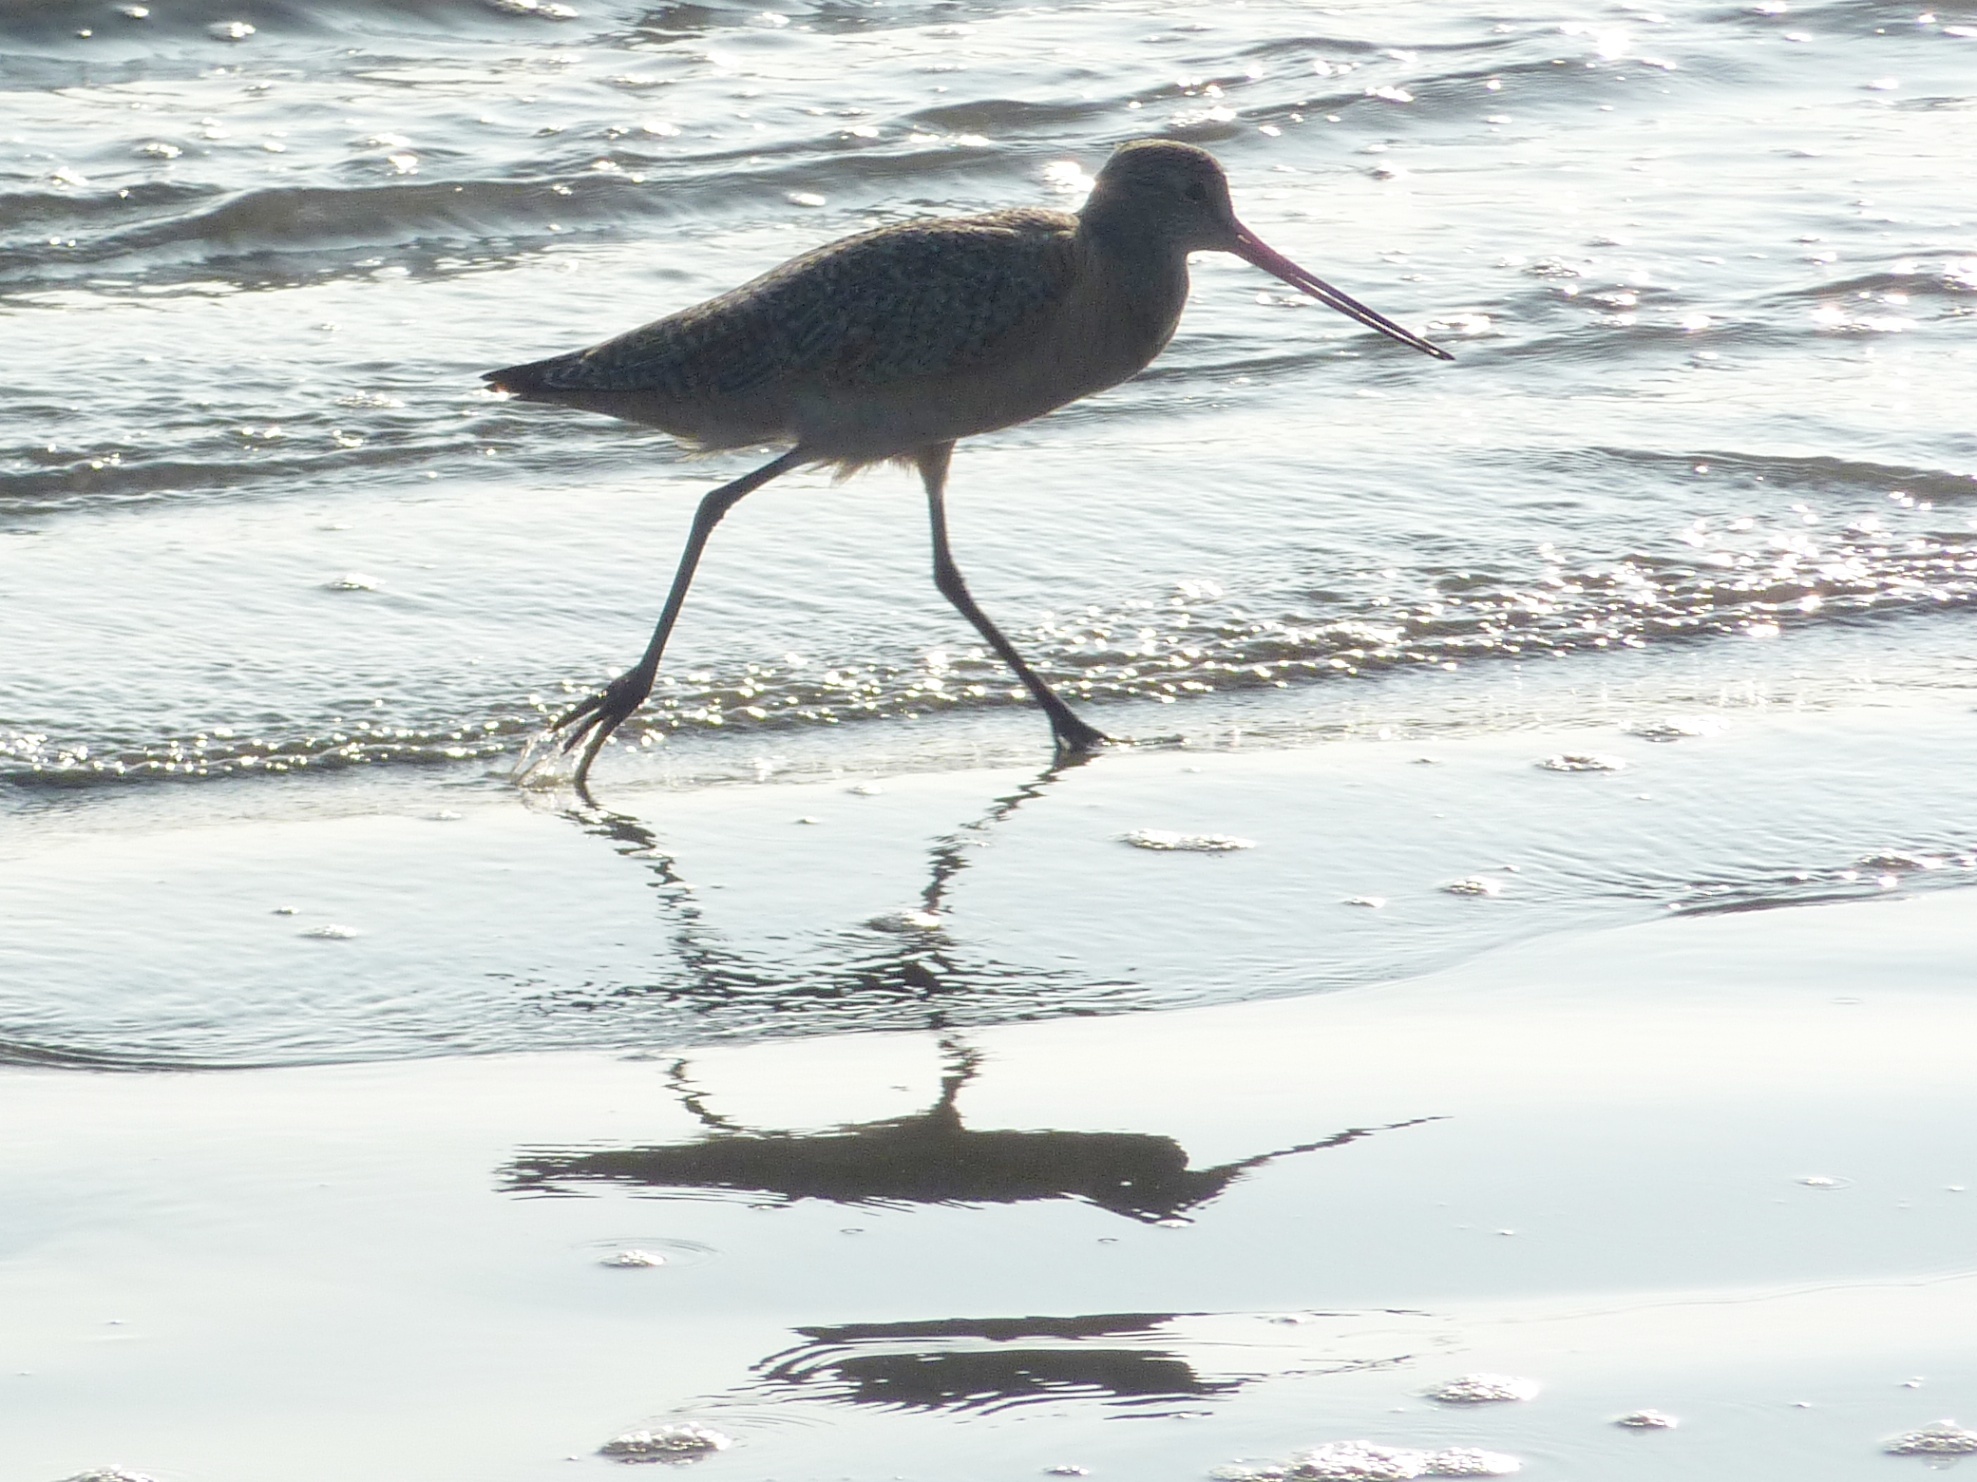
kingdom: Animalia
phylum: Chordata
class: Aves
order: Charadriiformes
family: Scolopacidae
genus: Limosa
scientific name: Limosa fedoa
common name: Marbled godwit
